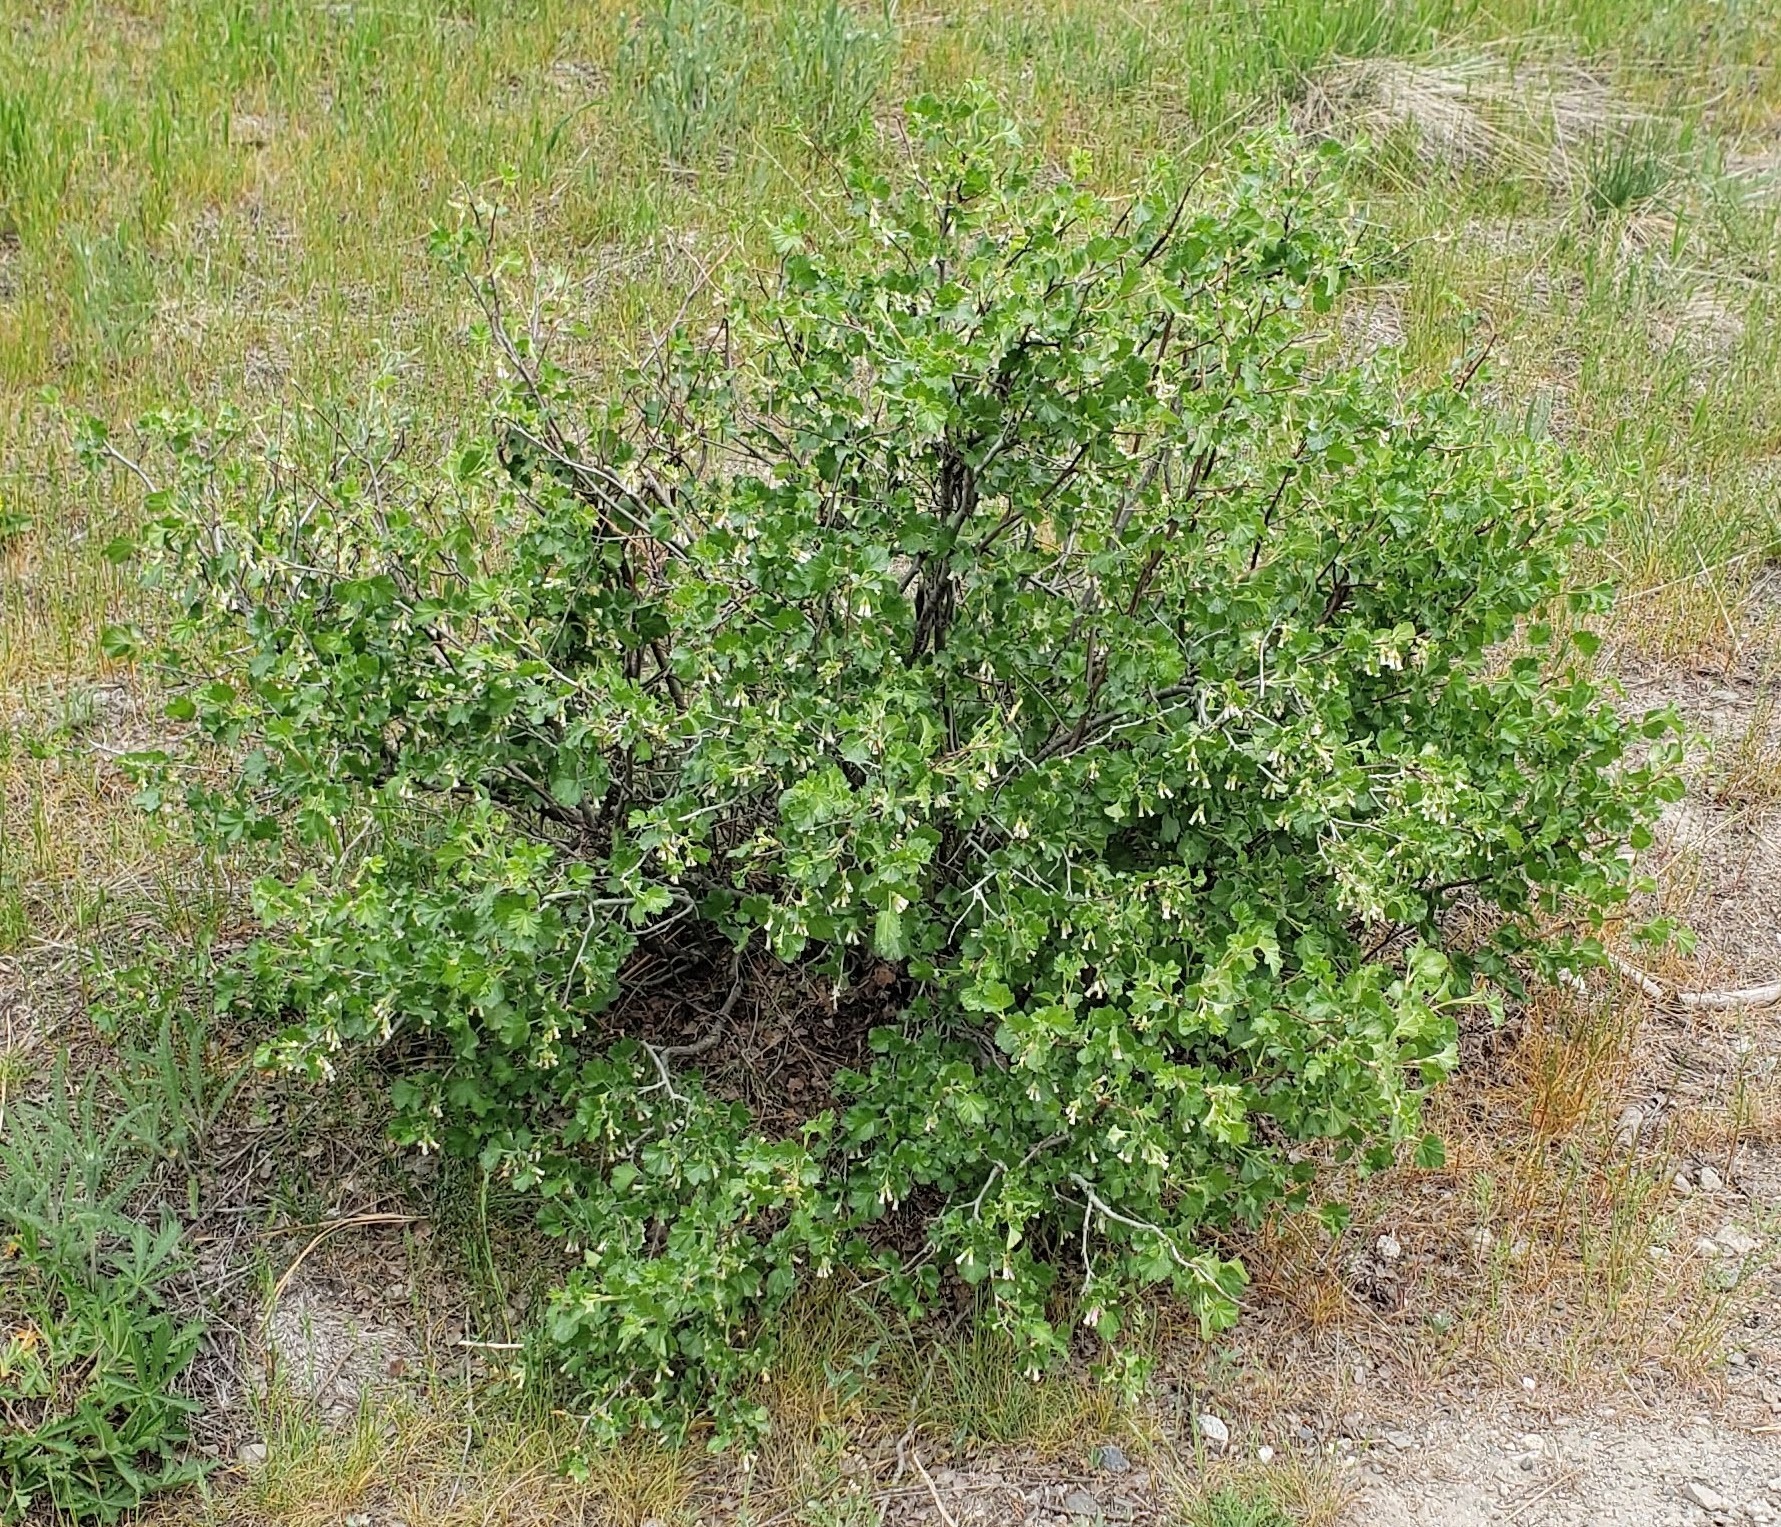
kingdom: Plantae
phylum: Tracheophyta
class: Magnoliopsida
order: Saxifragales
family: Grossulariaceae
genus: Ribes
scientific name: Ribes cereum
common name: Wax currant
